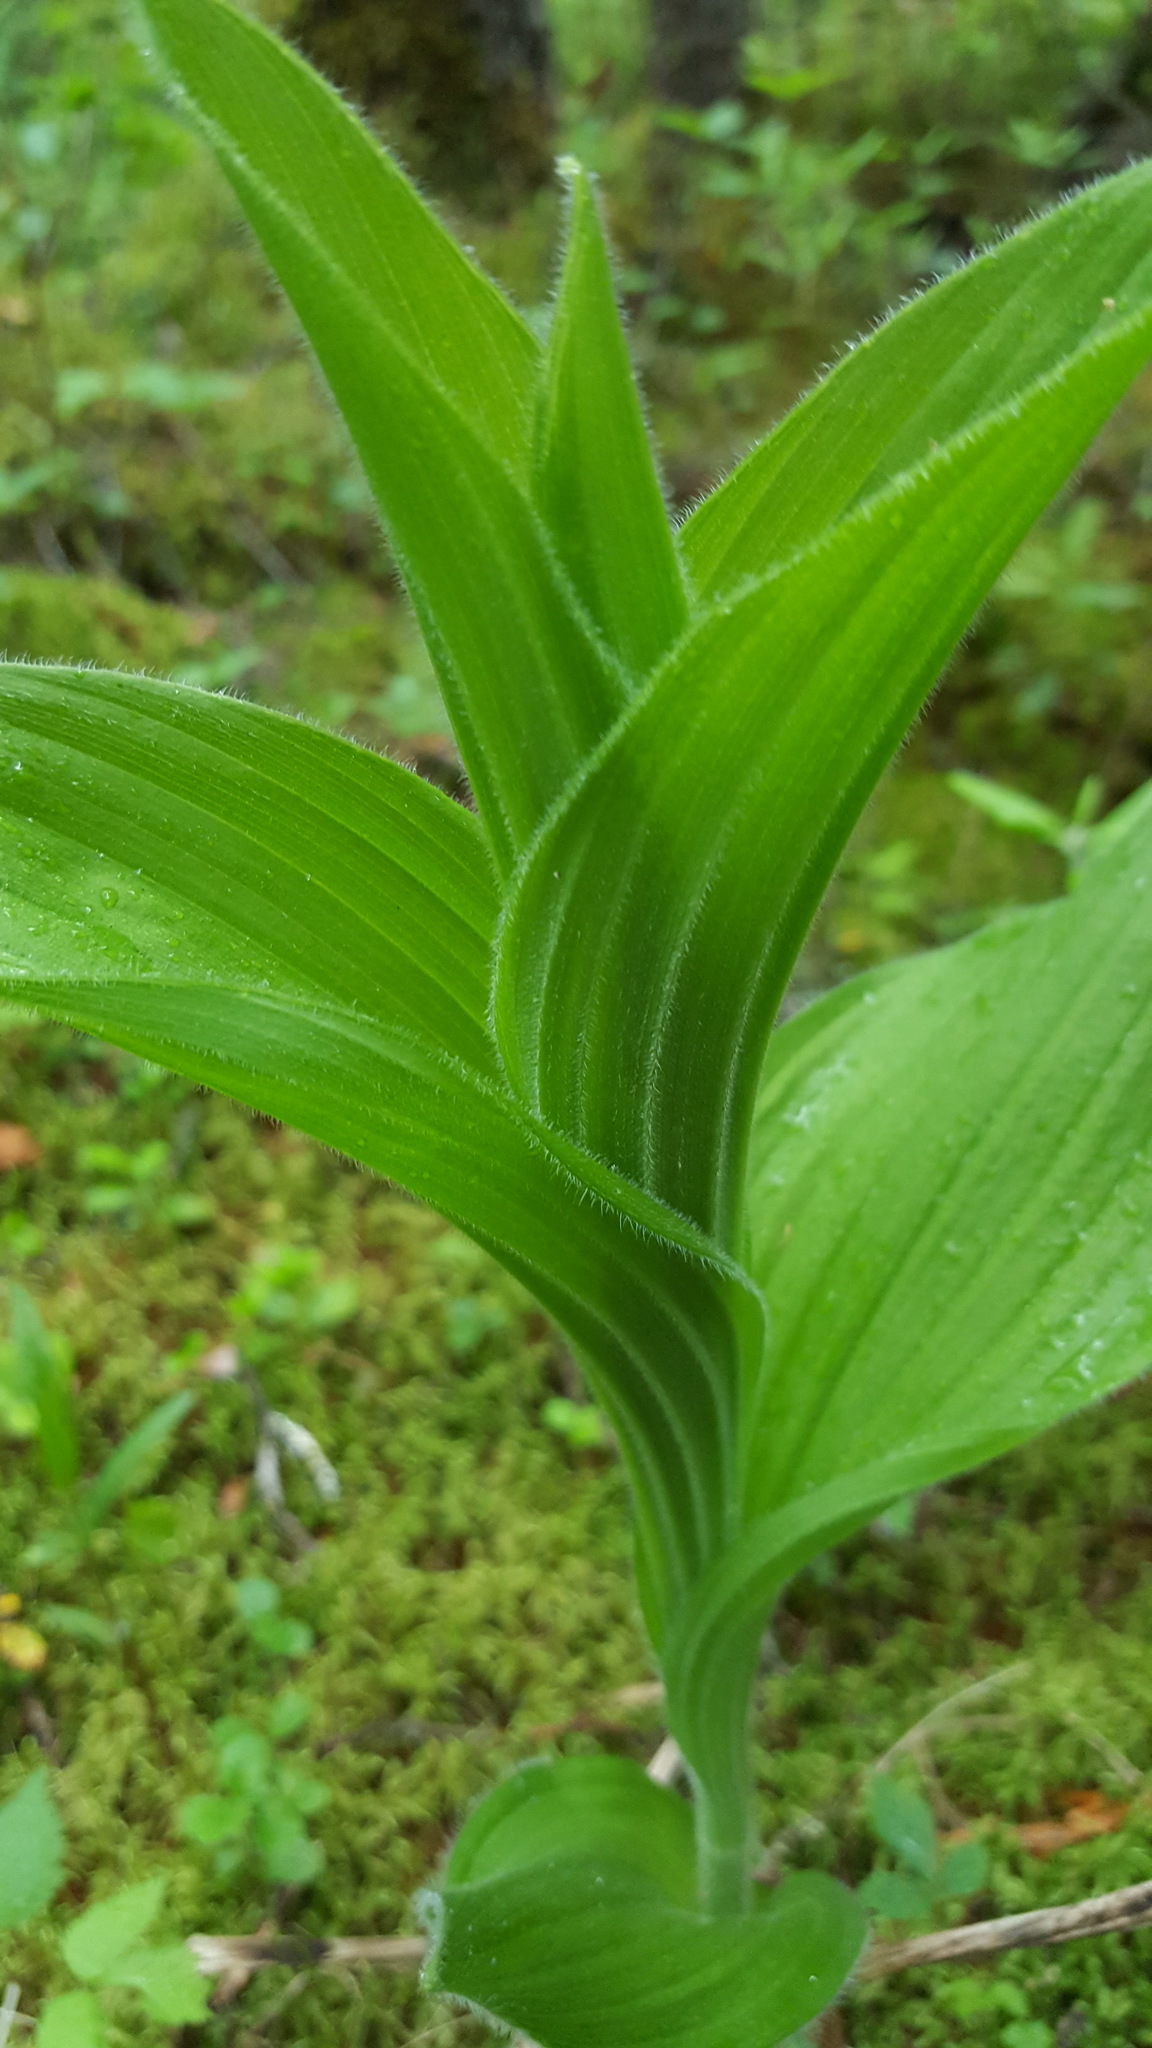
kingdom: Plantae
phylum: Tracheophyta
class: Liliopsida
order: Asparagales
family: Orchidaceae
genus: Cypripedium
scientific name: Cypripedium reginae
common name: Queen lady's-slipper
